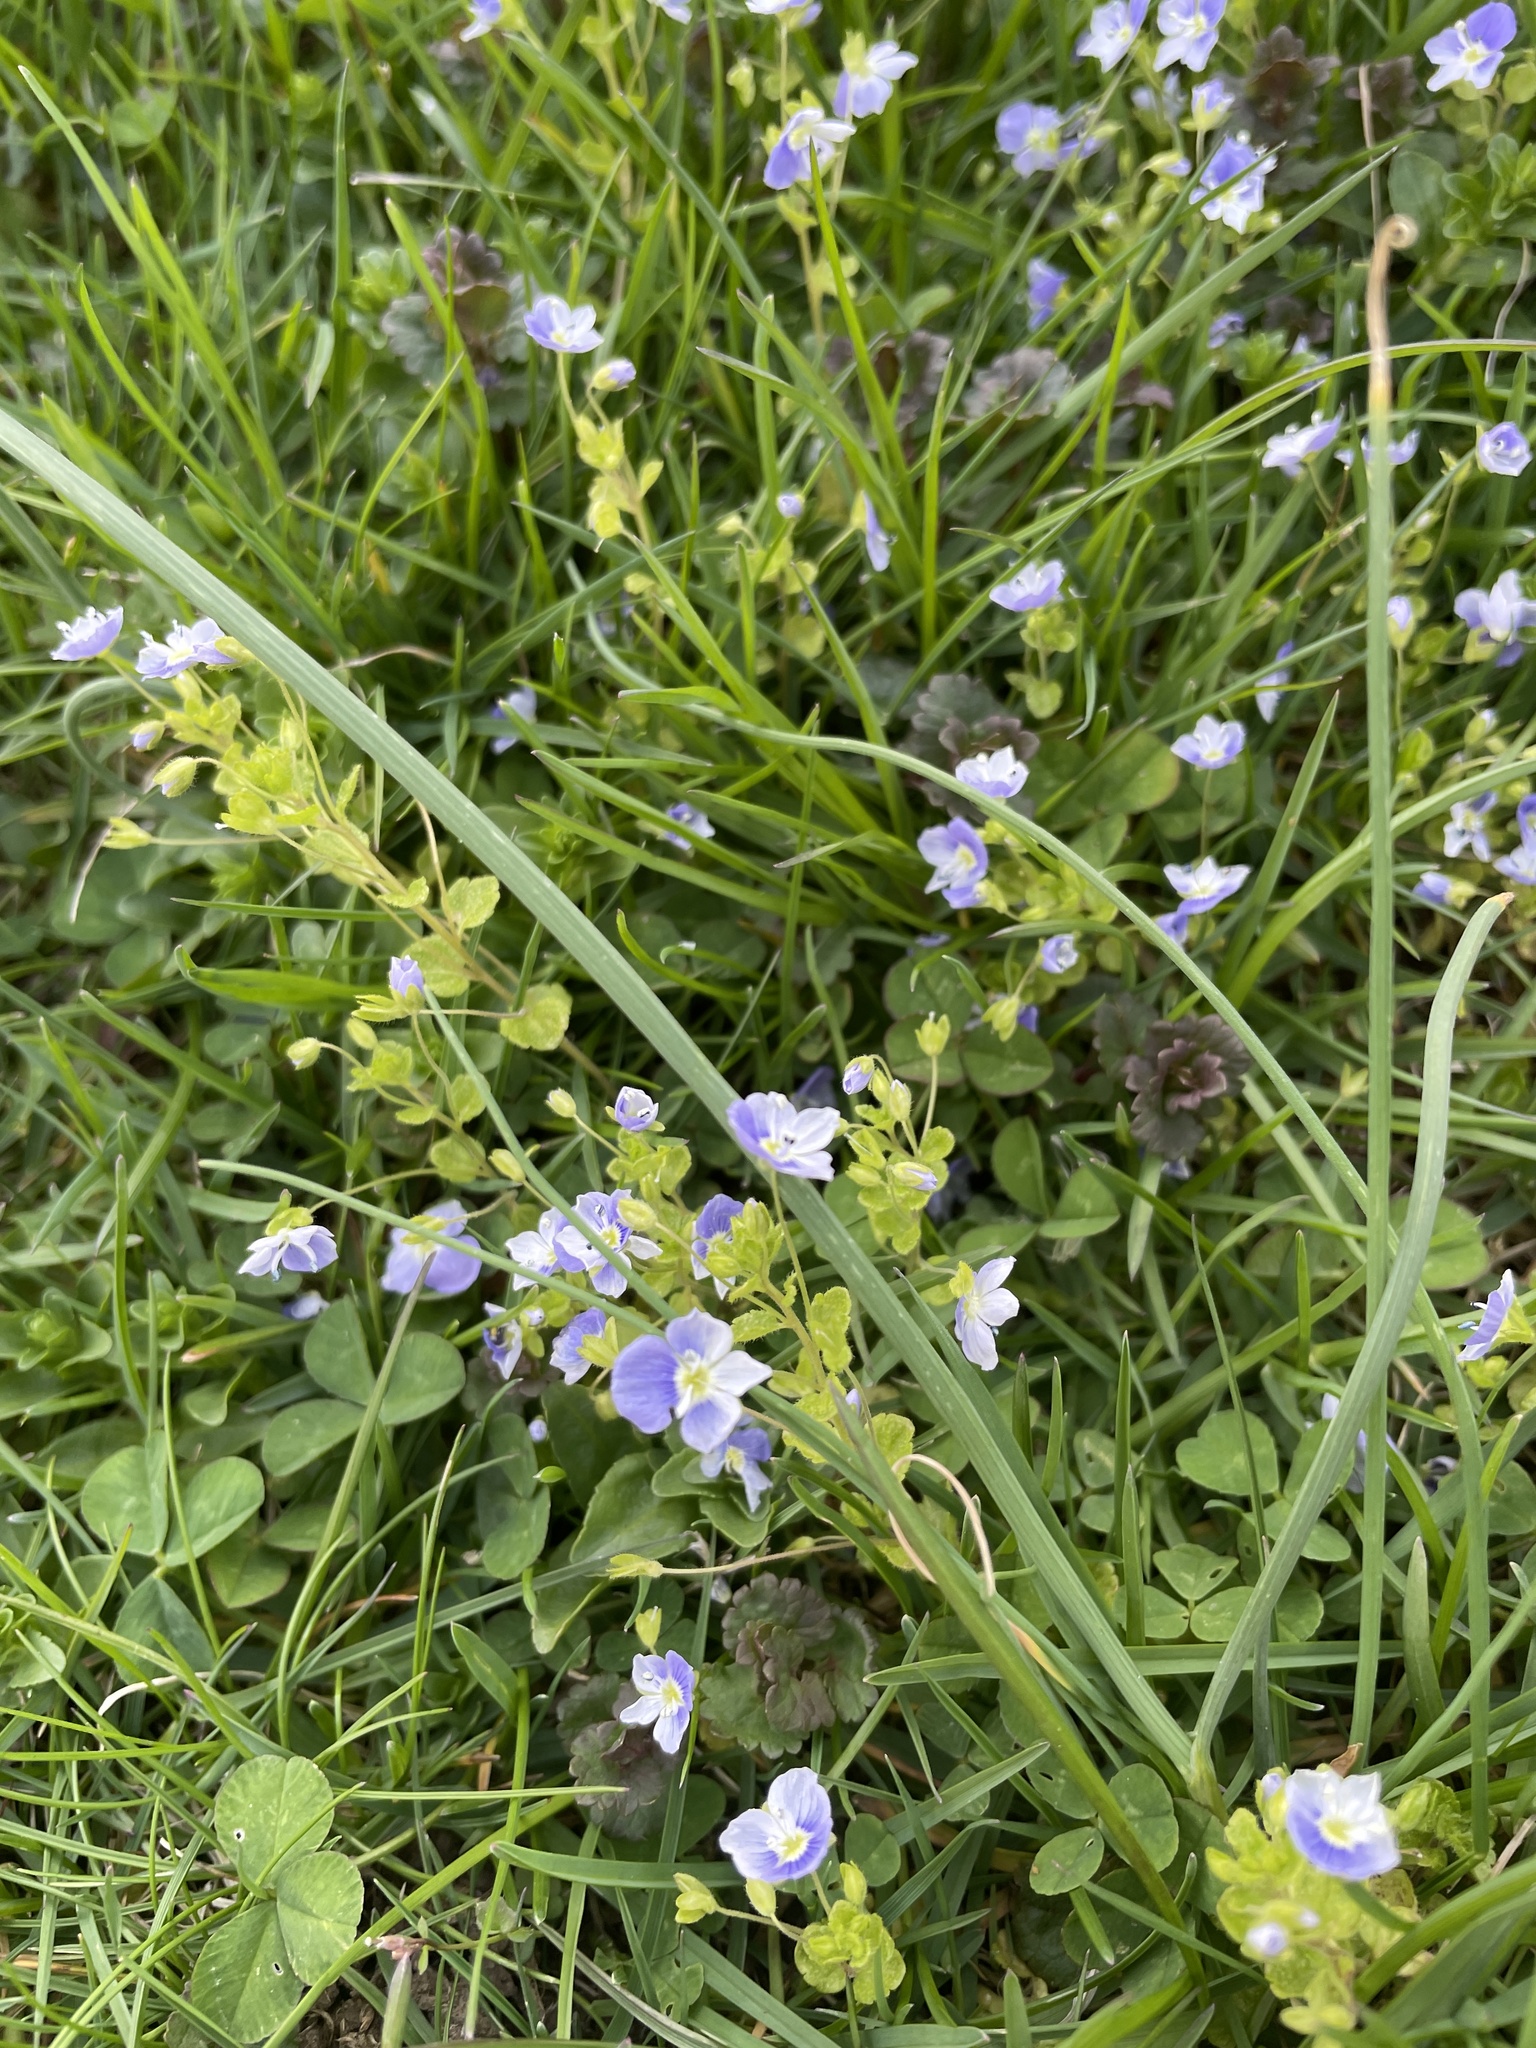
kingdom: Plantae
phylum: Tracheophyta
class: Magnoliopsida
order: Lamiales
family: Plantaginaceae
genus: Veronica
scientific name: Veronica filiformis
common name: Slender speedwell
